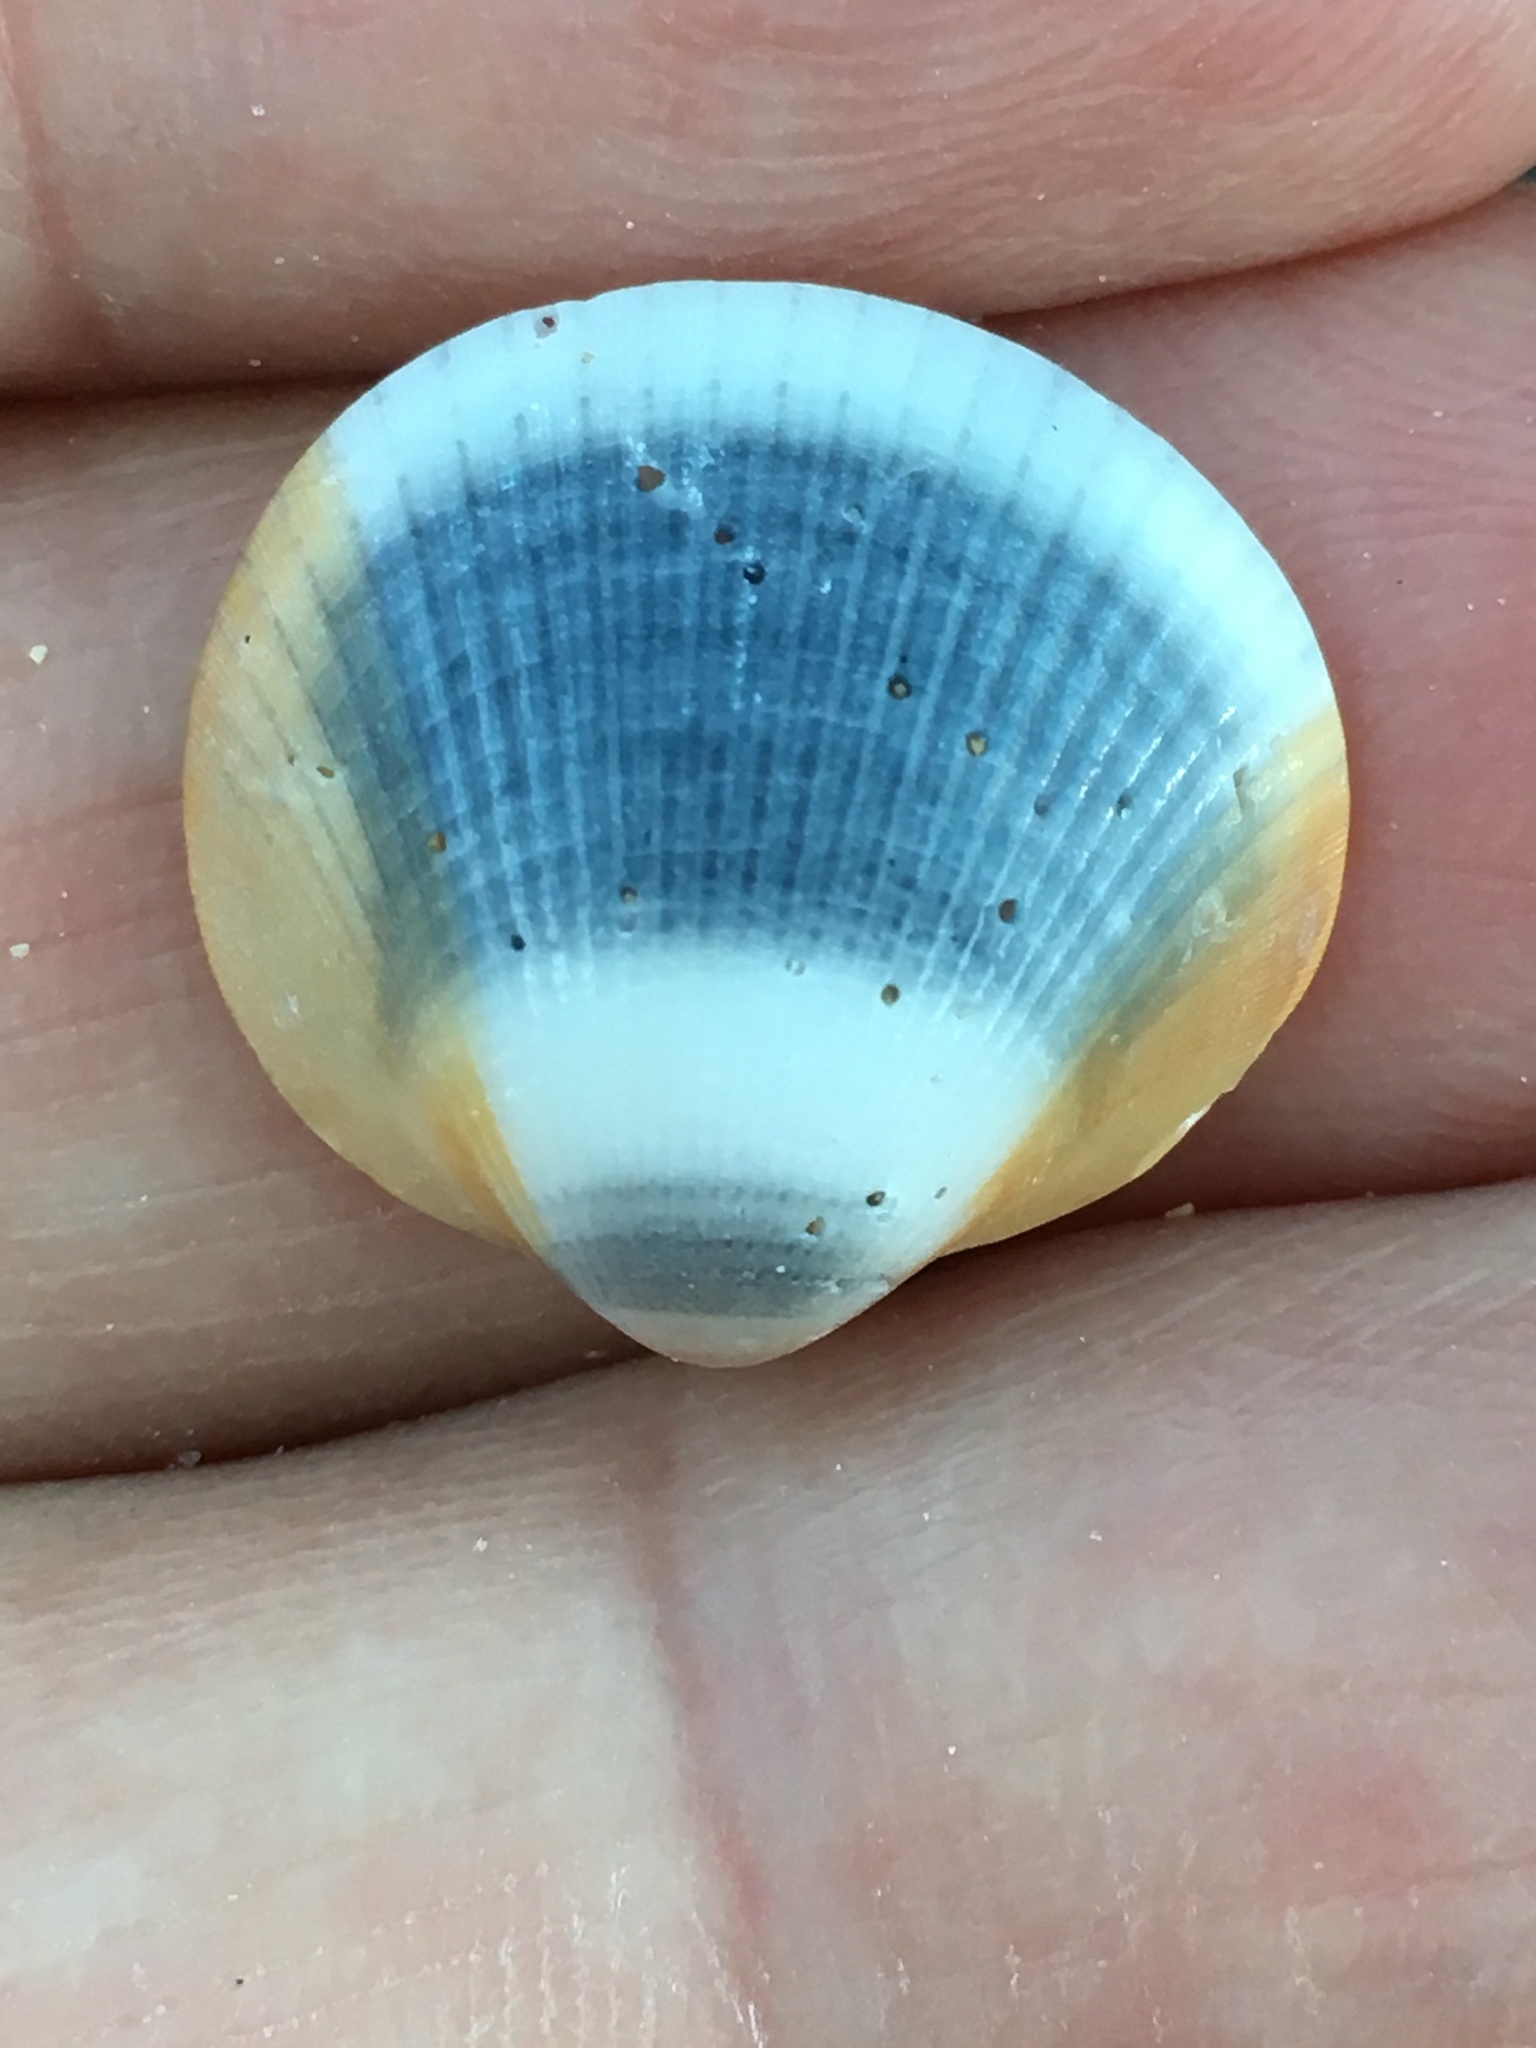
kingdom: Animalia
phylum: Mollusca
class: Bivalvia
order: Arcida
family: Glycymerididae
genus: Glycymeris
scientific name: Glycymeris spectralis
